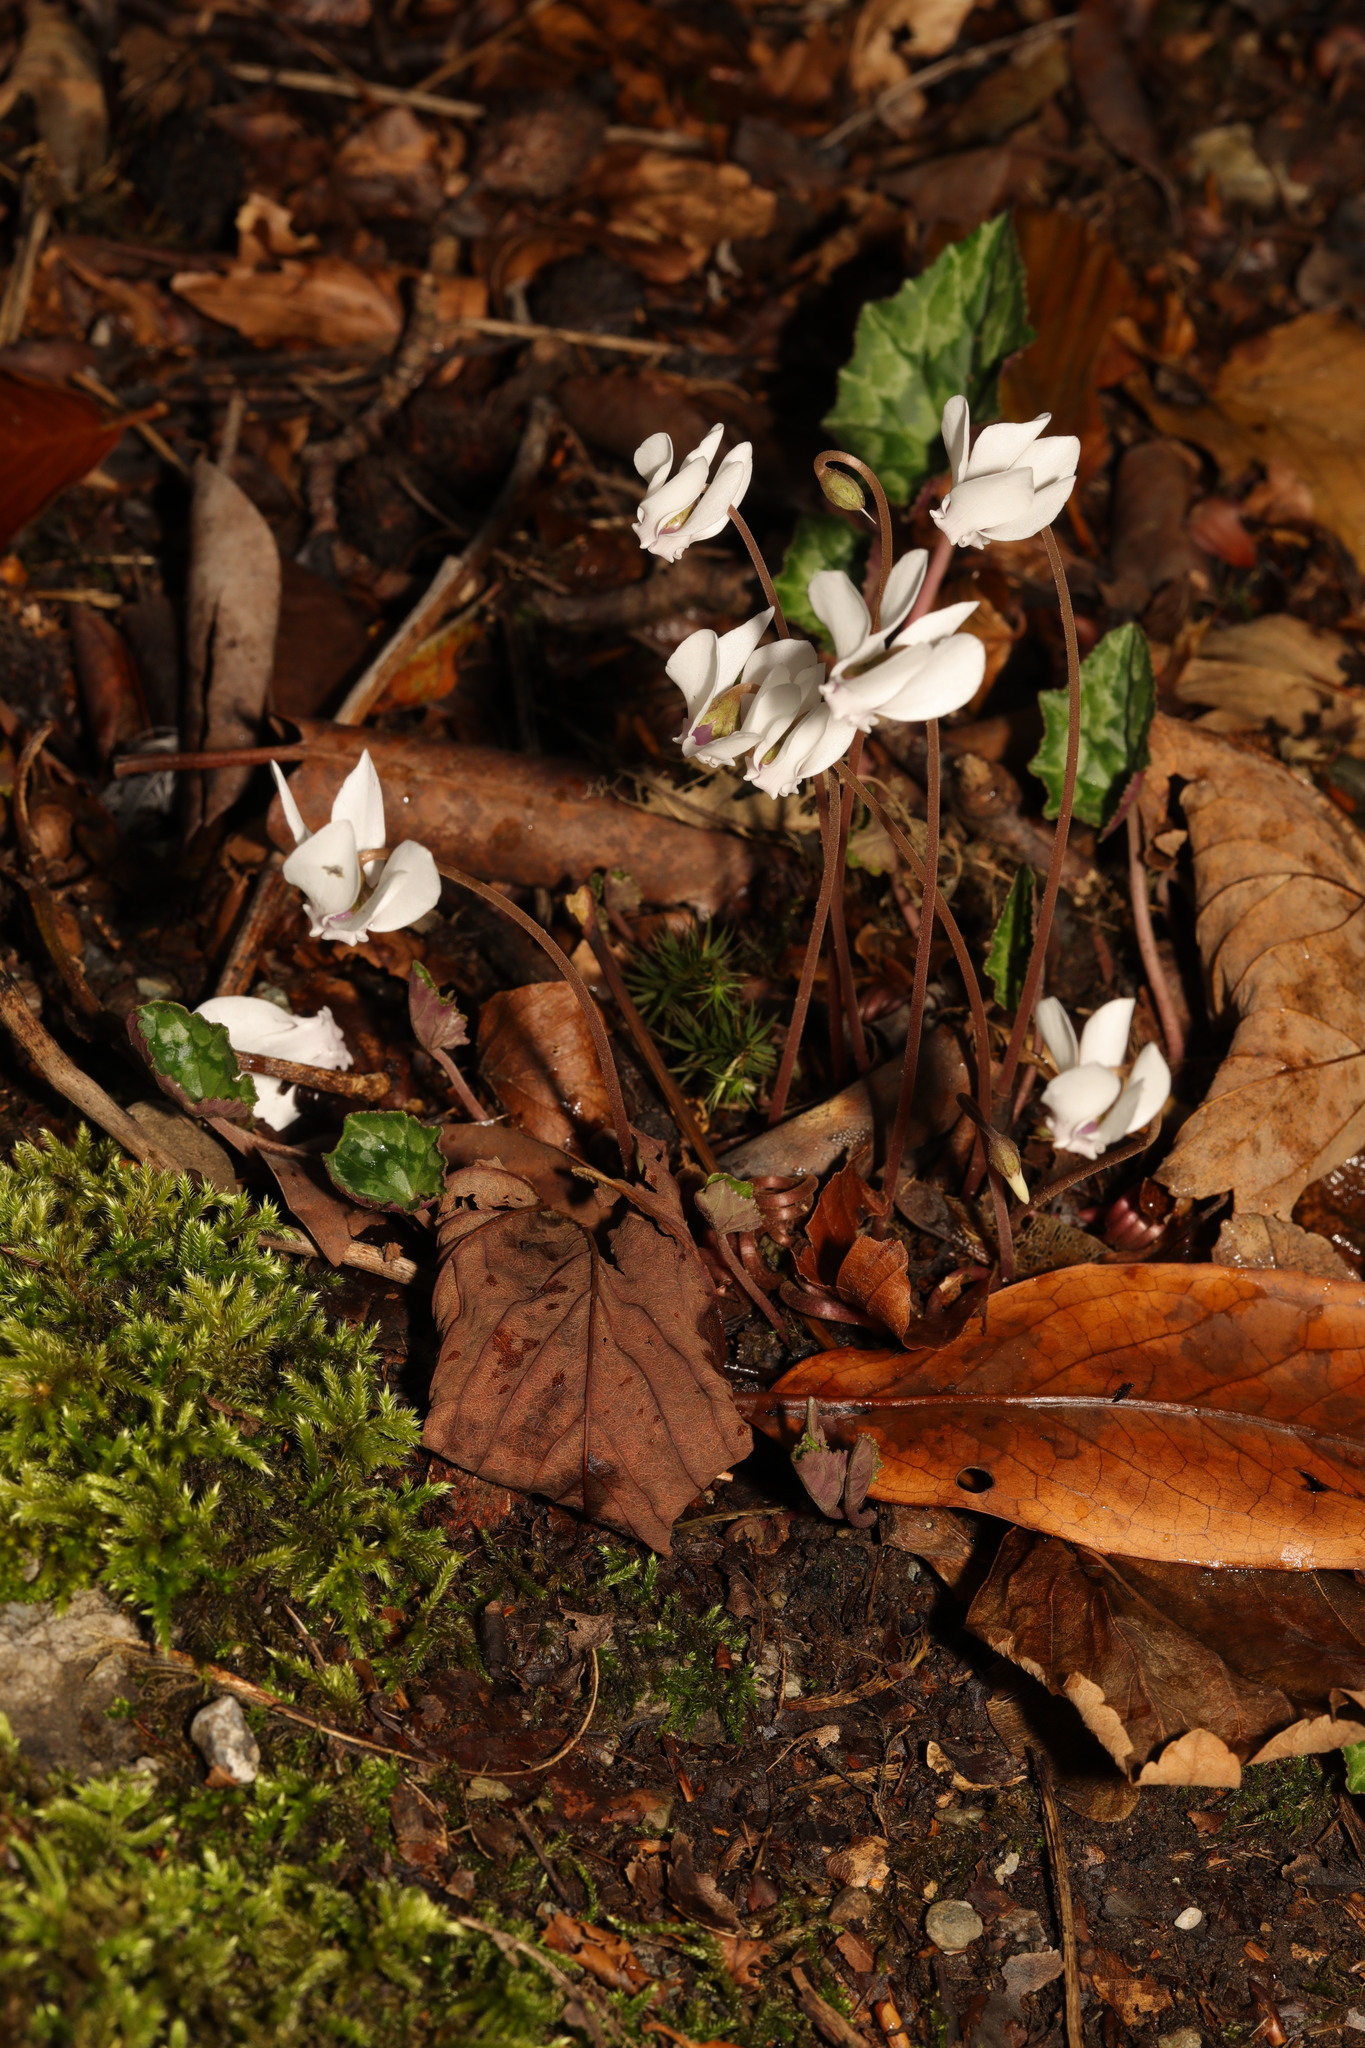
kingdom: Plantae
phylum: Tracheophyta
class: Magnoliopsida
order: Ericales
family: Primulaceae
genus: Cyclamen
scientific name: Cyclamen hederifolium
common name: Sowbread
